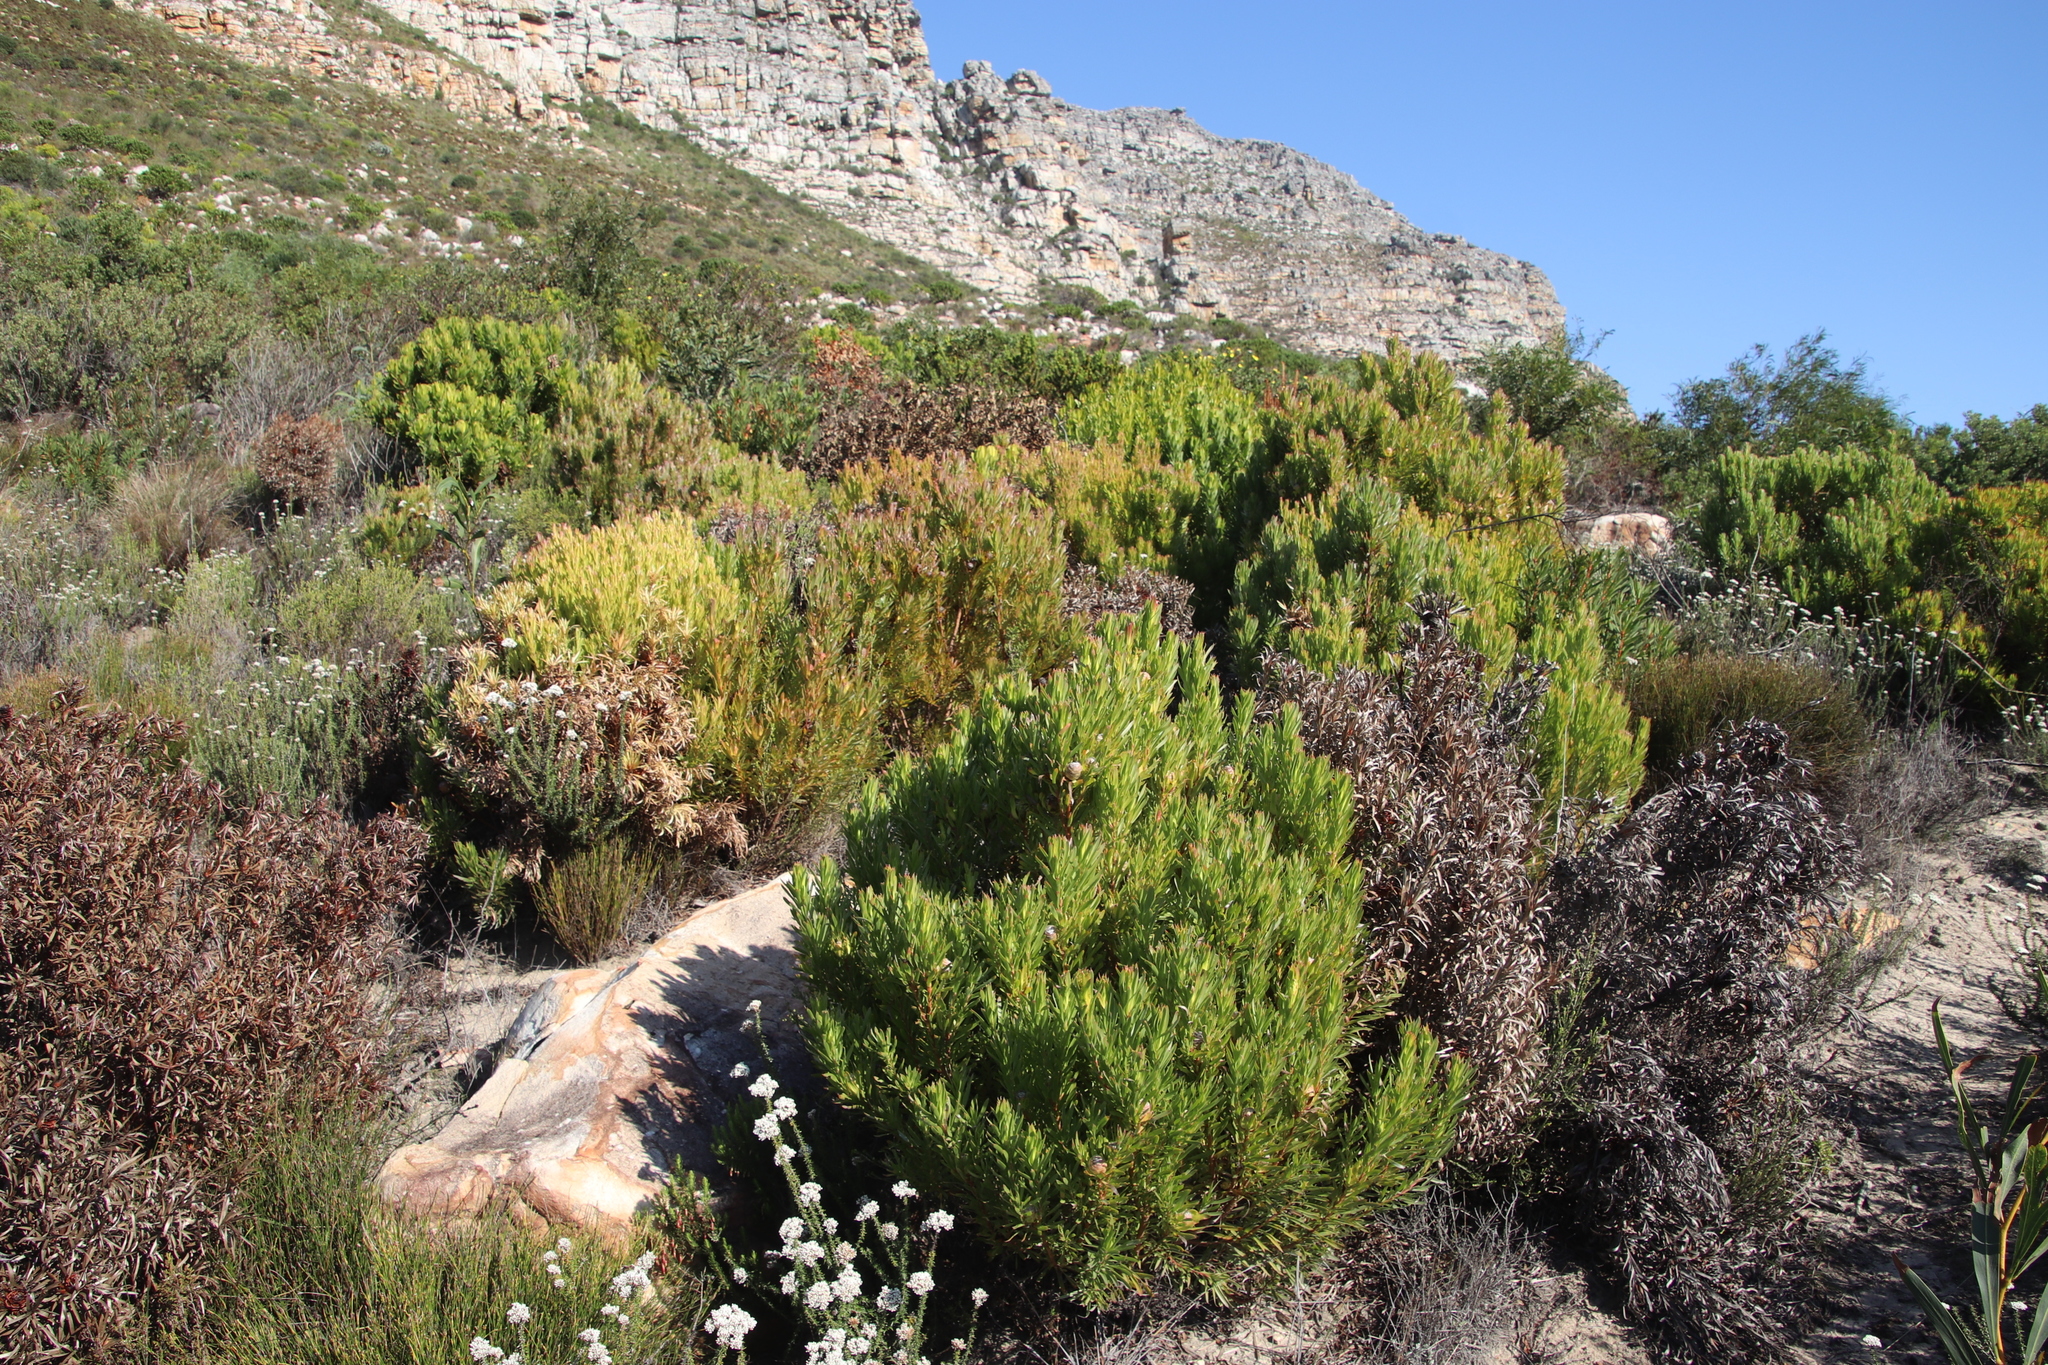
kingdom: Plantae
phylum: Tracheophyta
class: Magnoliopsida
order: Proteales
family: Proteaceae
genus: Leucadendron
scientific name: Leucadendron xanthoconus
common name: Sickle-leaf conebush
